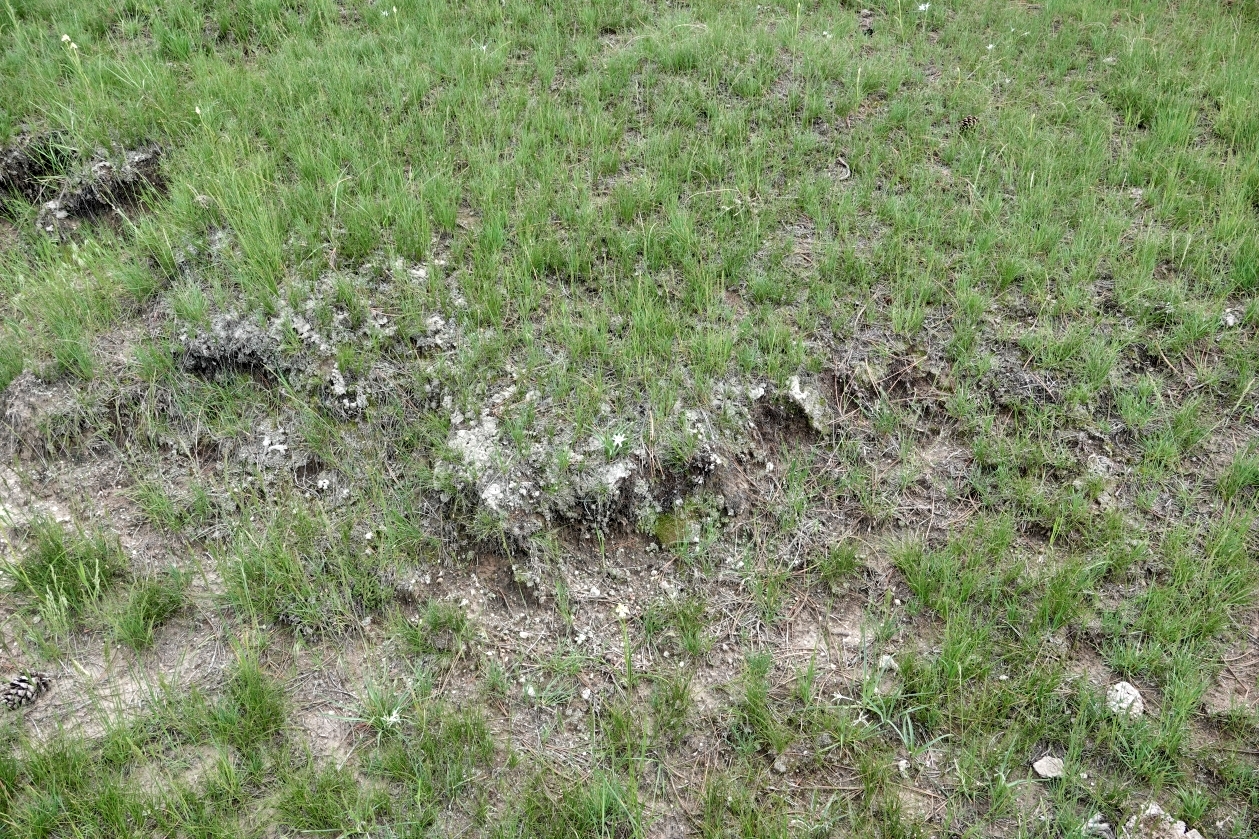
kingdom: Plantae
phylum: Tracheophyta
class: Liliopsida
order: Asparagales
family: Asparagaceae
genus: Leucocrinum
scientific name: Leucocrinum montanum
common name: Mountain-lily
